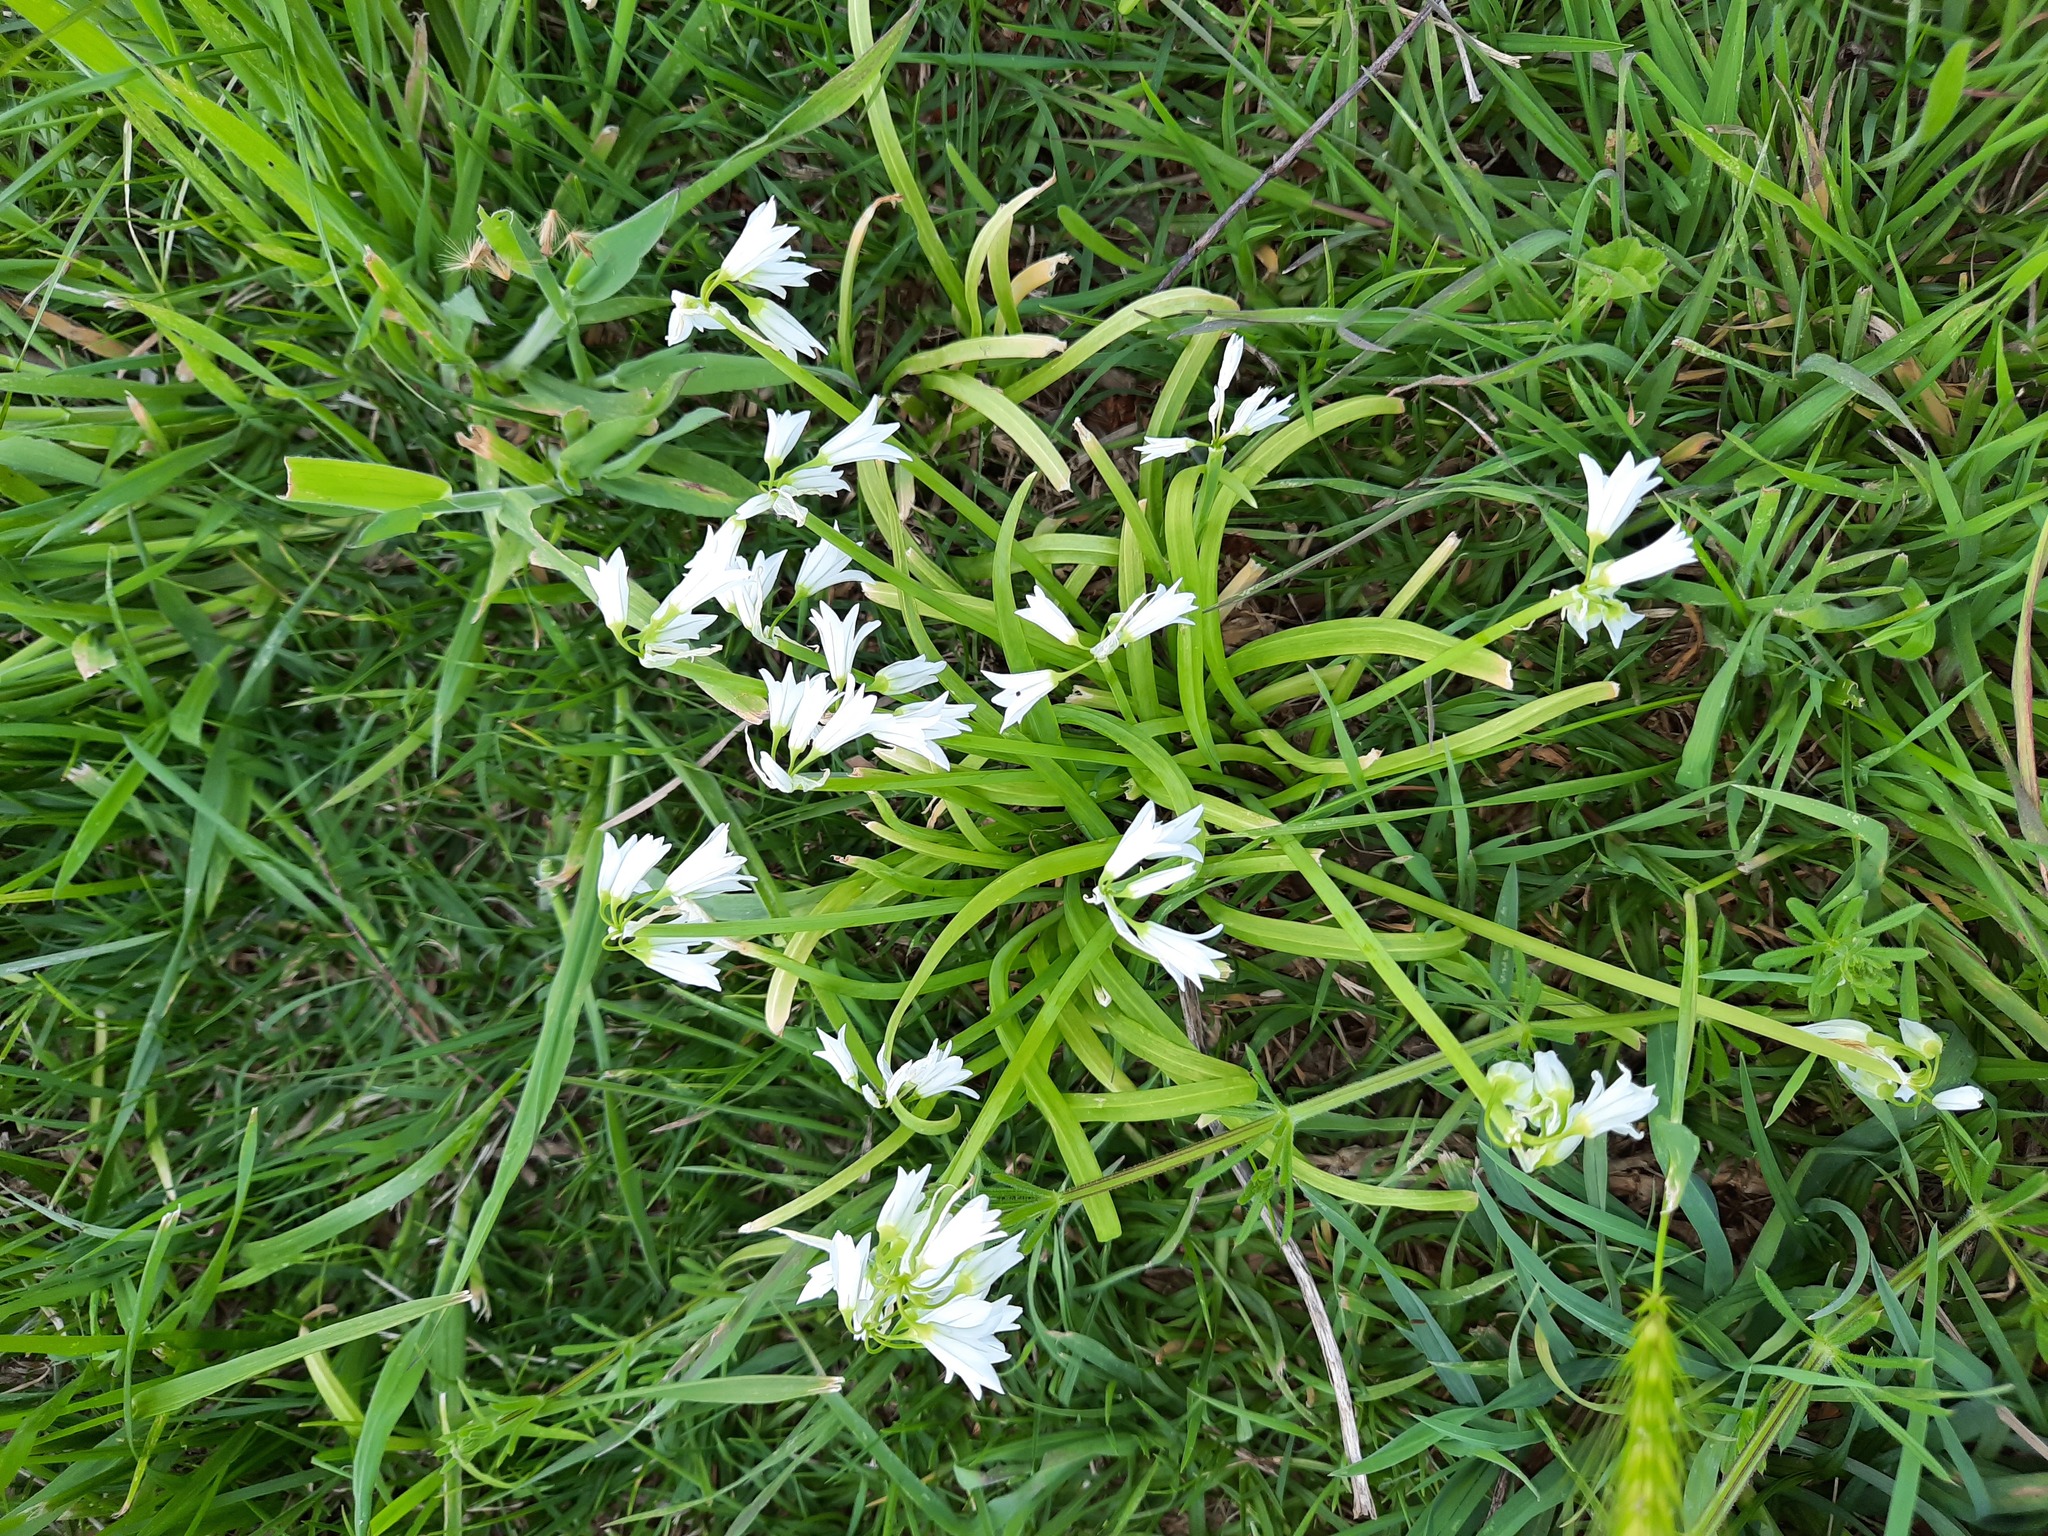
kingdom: Plantae
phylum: Tracheophyta
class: Liliopsida
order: Asparagales
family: Amaryllidaceae
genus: Allium
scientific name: Allium triquetrum
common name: Three-cornered garlic
